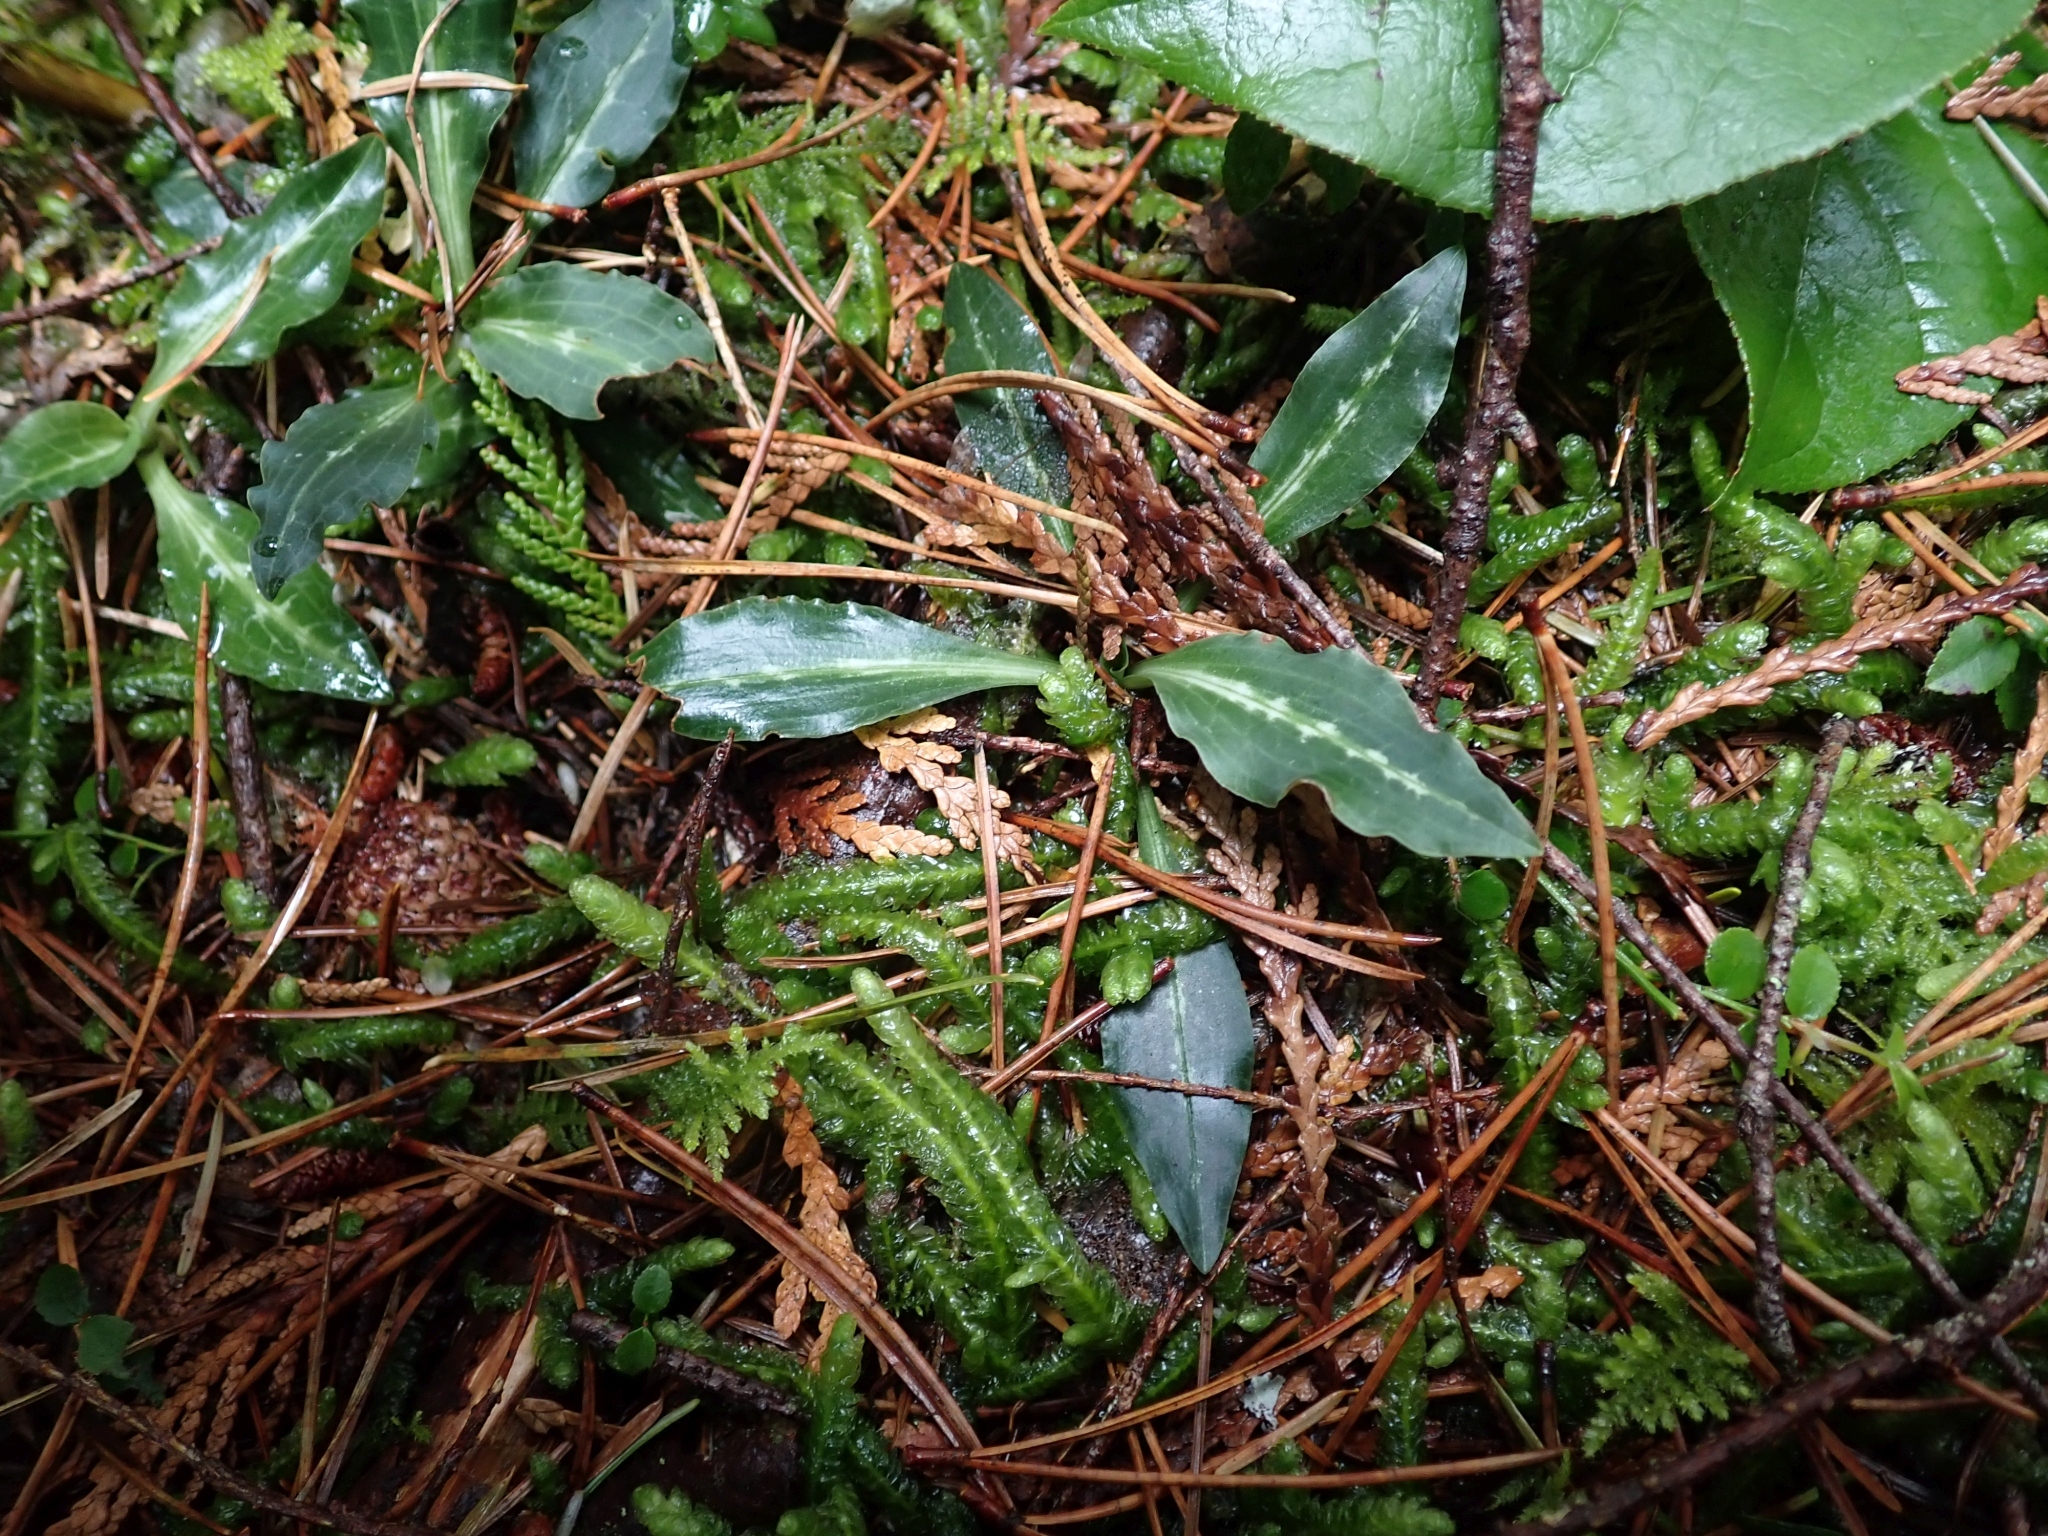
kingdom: Plantae
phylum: Tracheophyta
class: Liliopsida
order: Asparagales
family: Orchidaceae
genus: Goodyera
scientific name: Goodyera oblongifolia
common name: Giant rattlesnake-plantain
